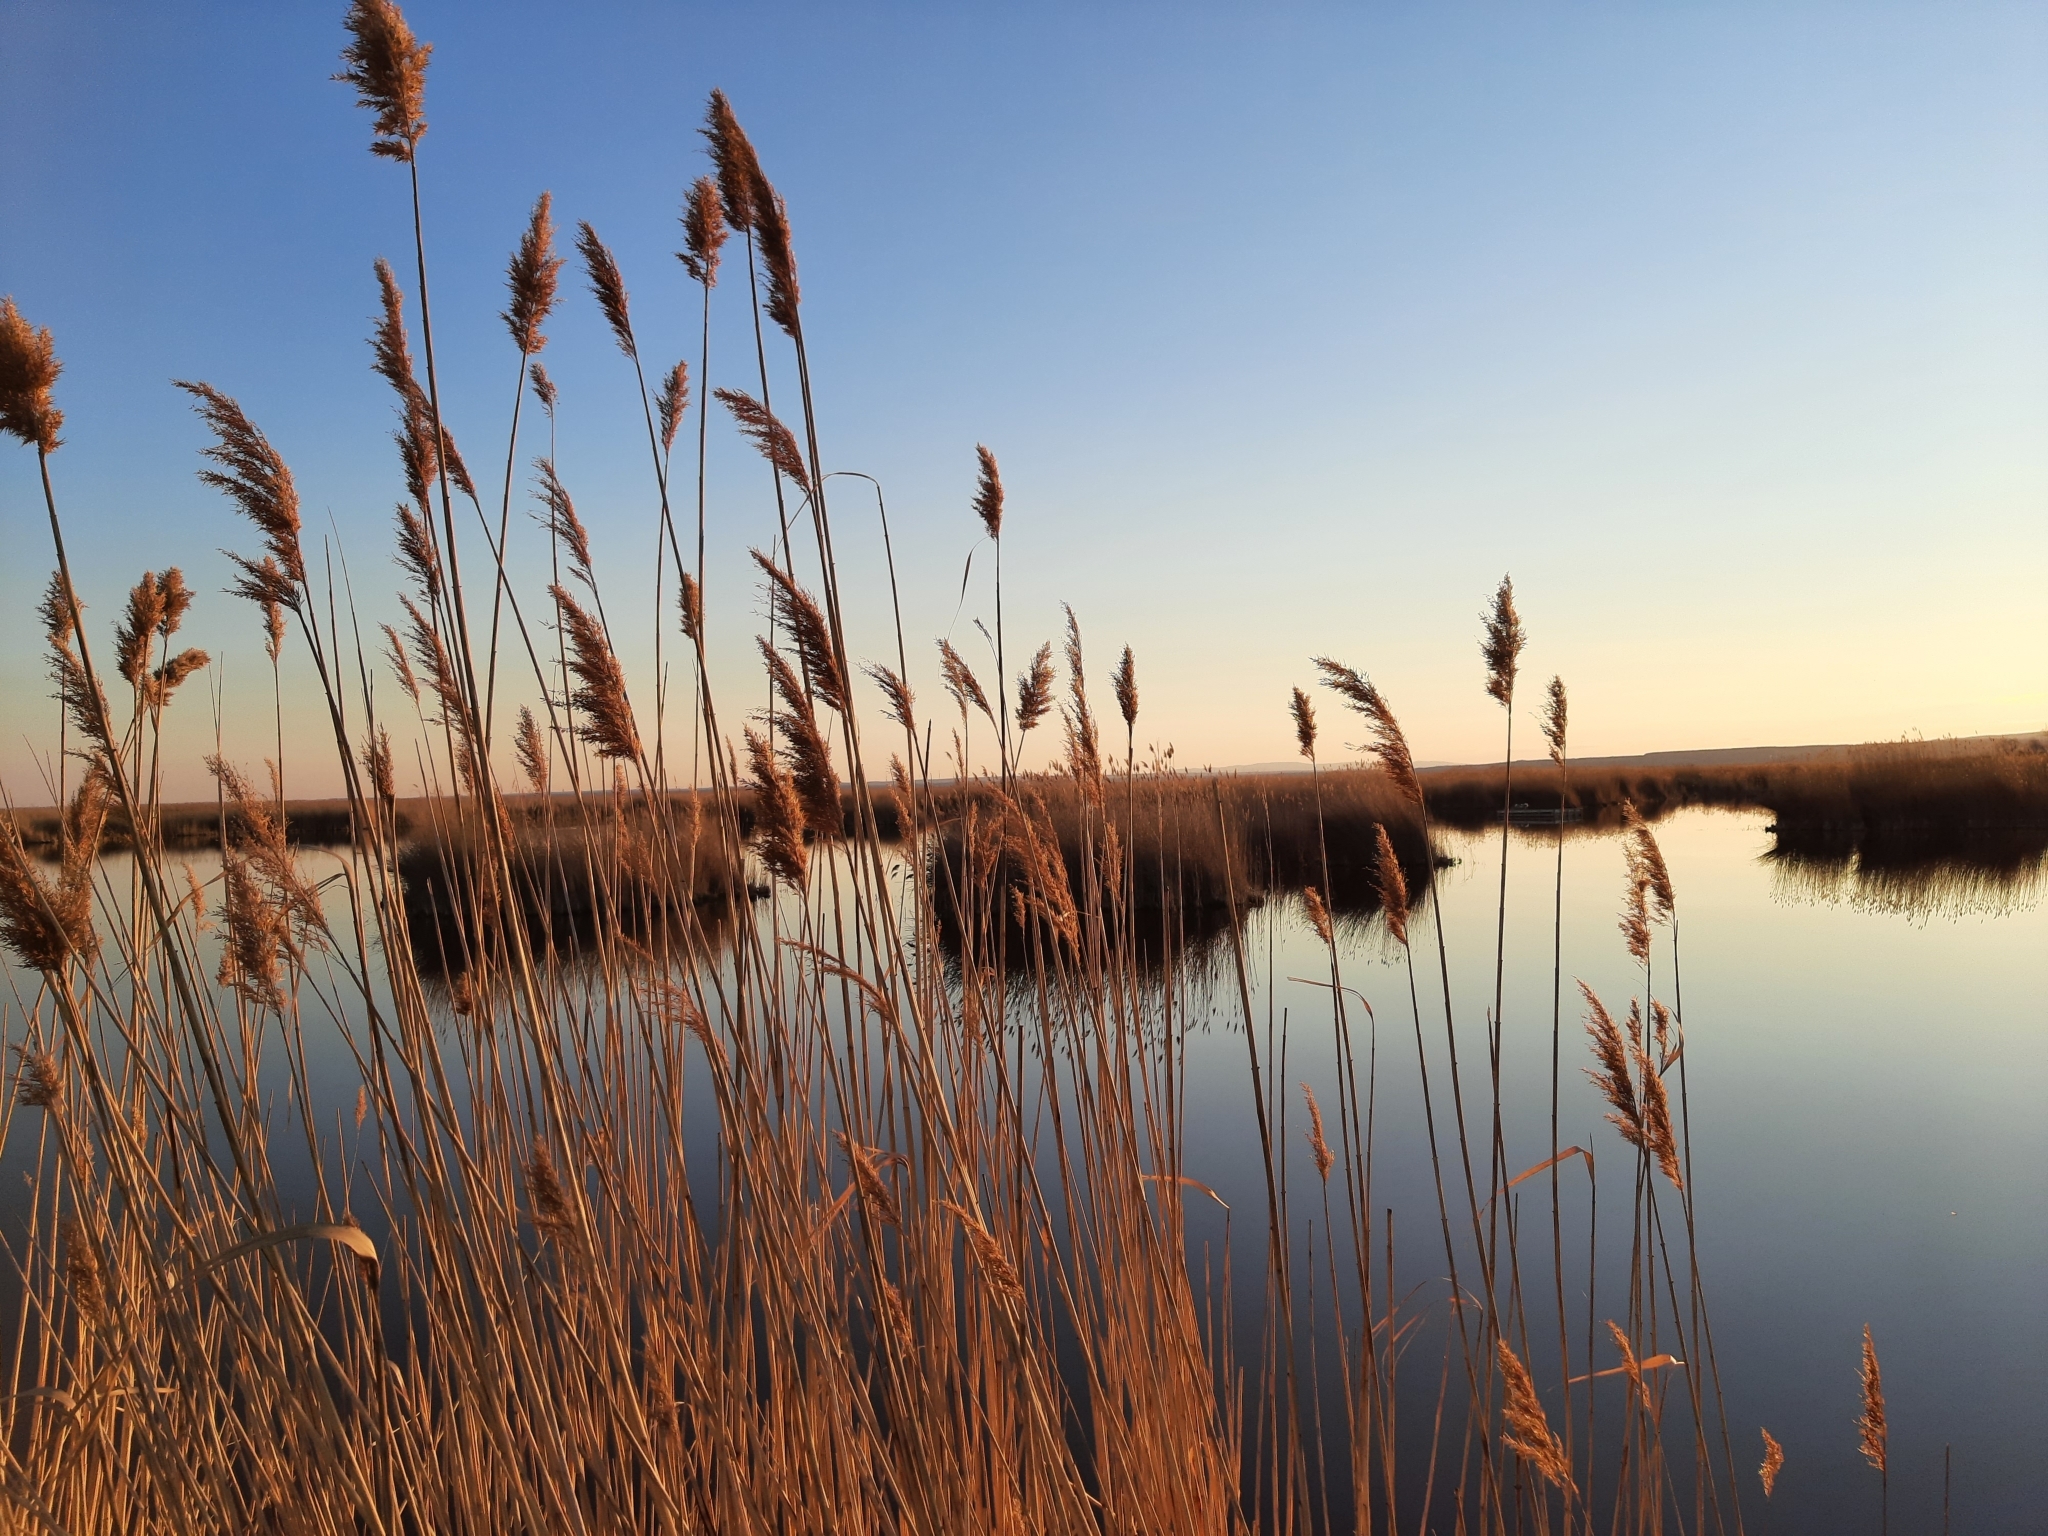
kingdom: Plantae
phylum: Tracheophyta
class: Liliopsida
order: Poales
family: Poaceae
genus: Phragmites
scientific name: Phragmites australis
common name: Common reed
